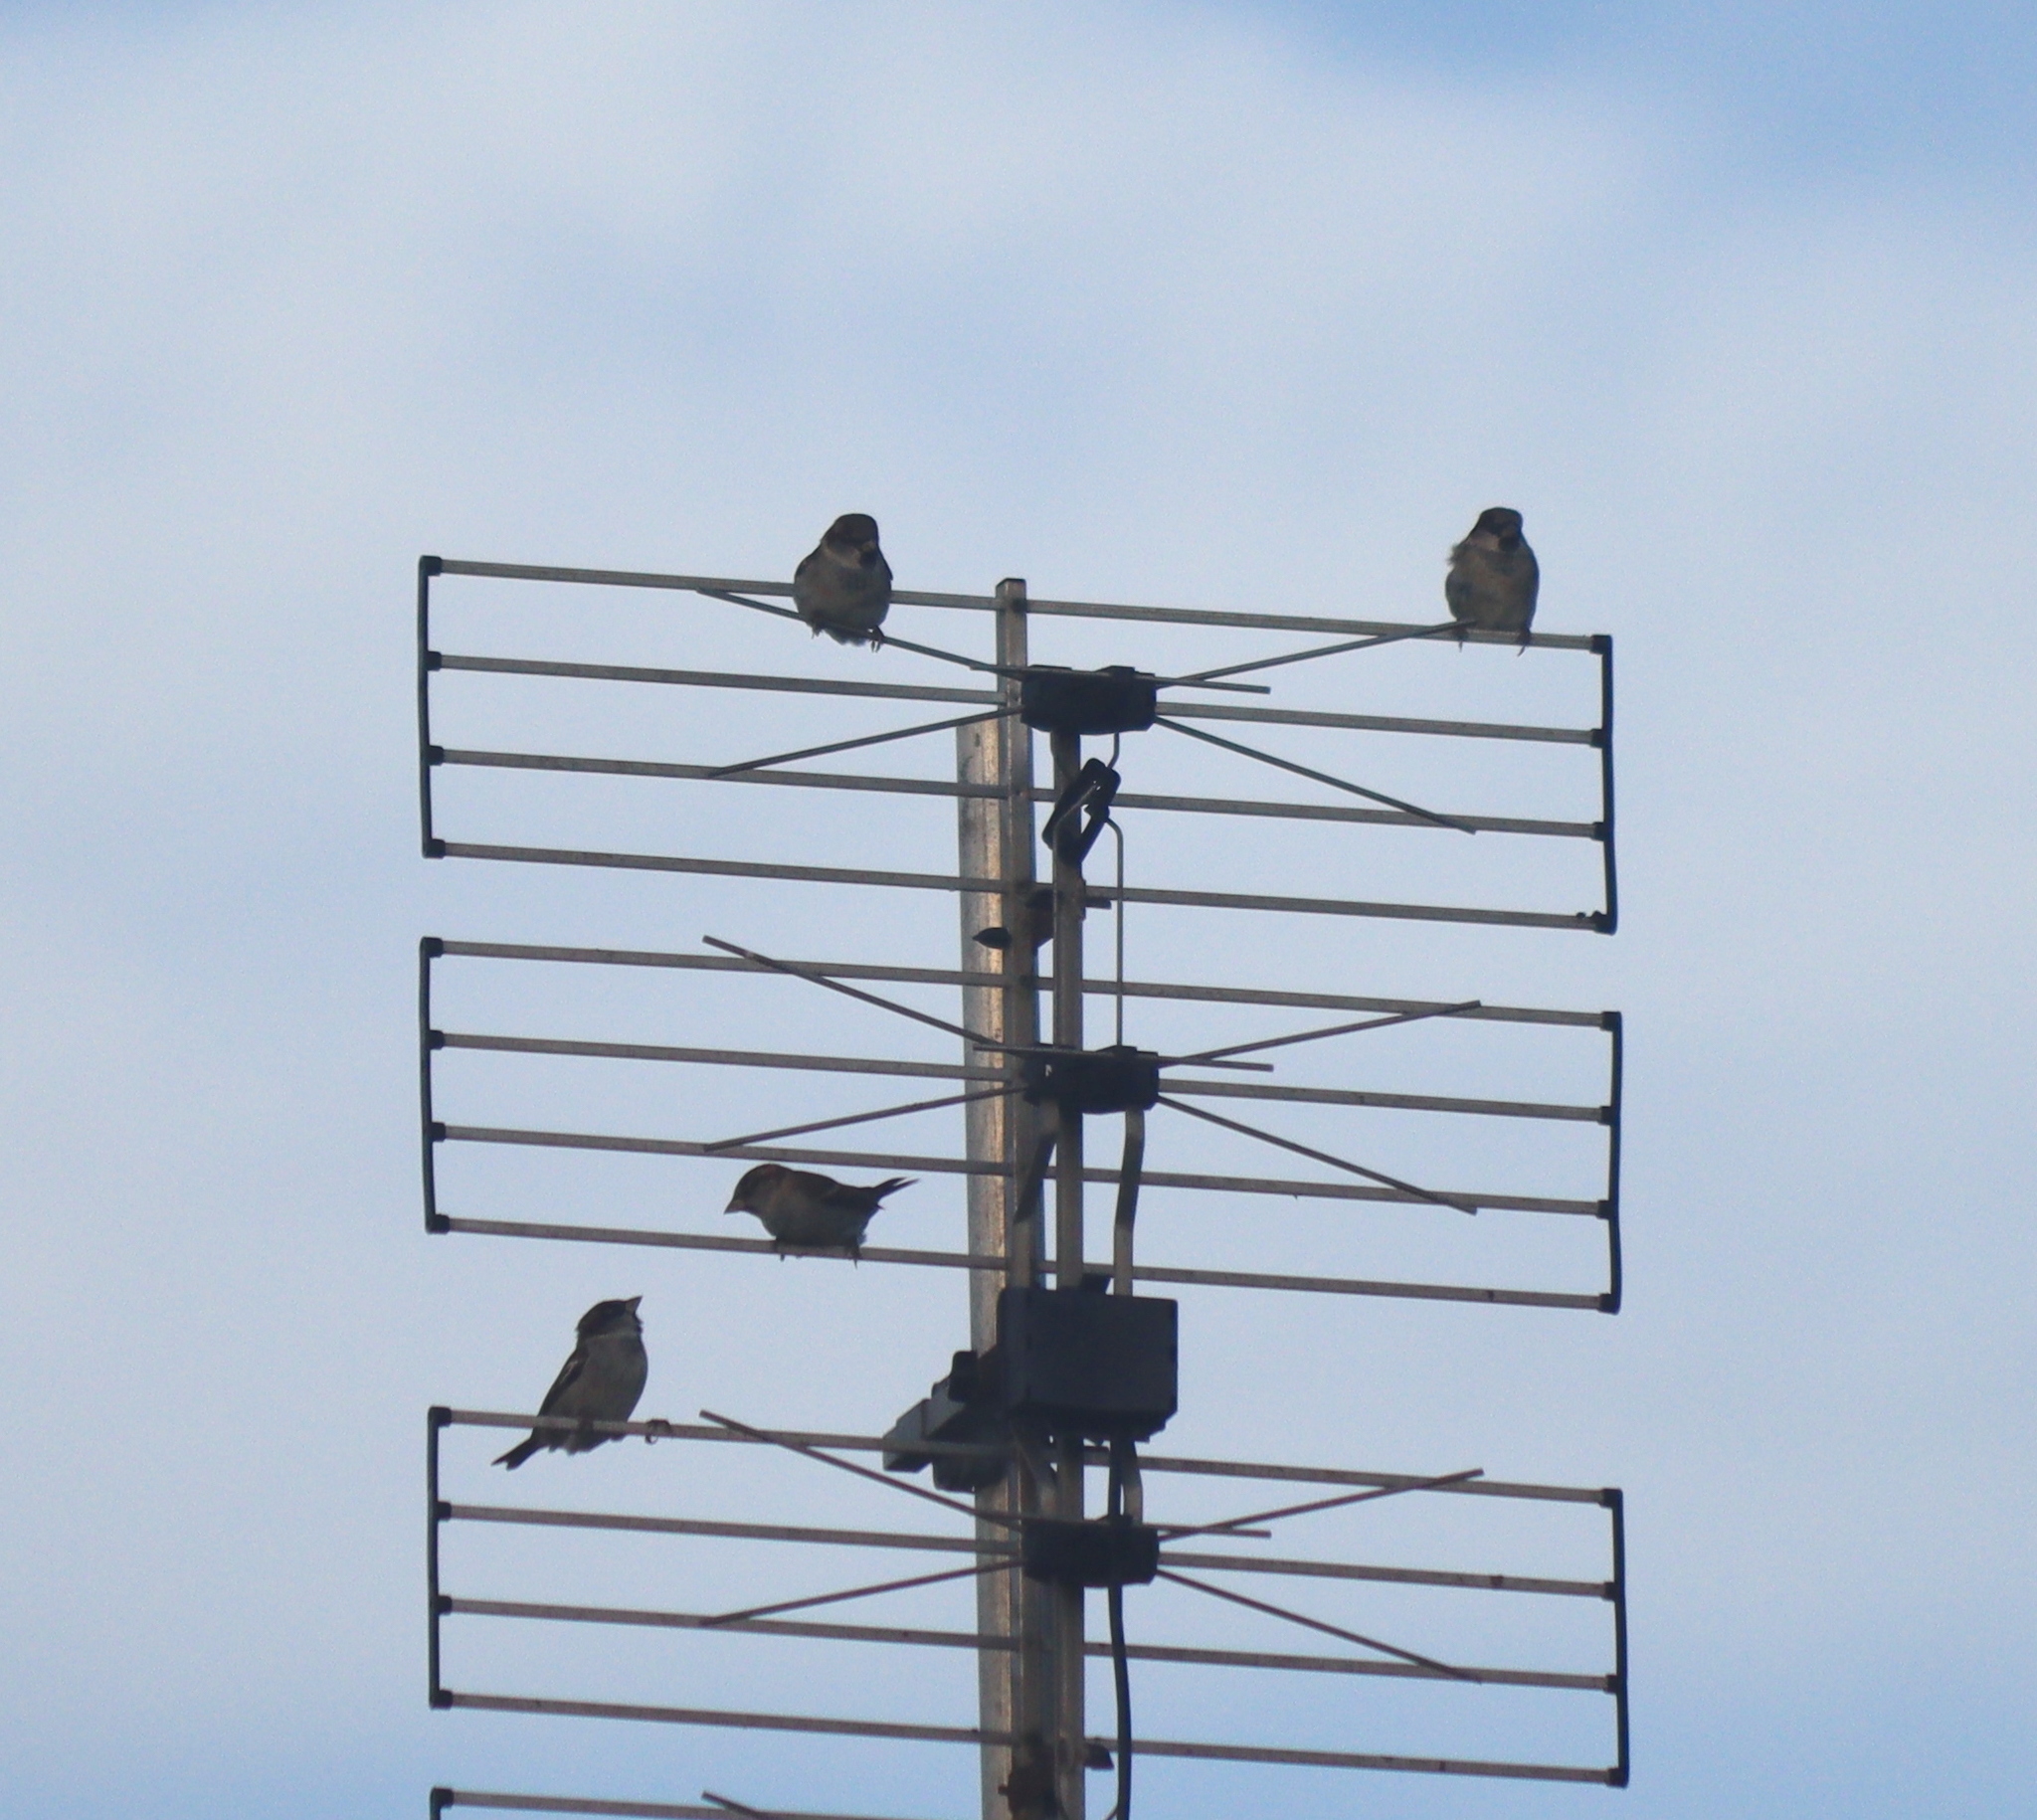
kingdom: Animalia
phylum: Chordata
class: Aves
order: Passeriformes
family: Passeridae
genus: Passer
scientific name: Passer domesticus
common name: House sparrow
